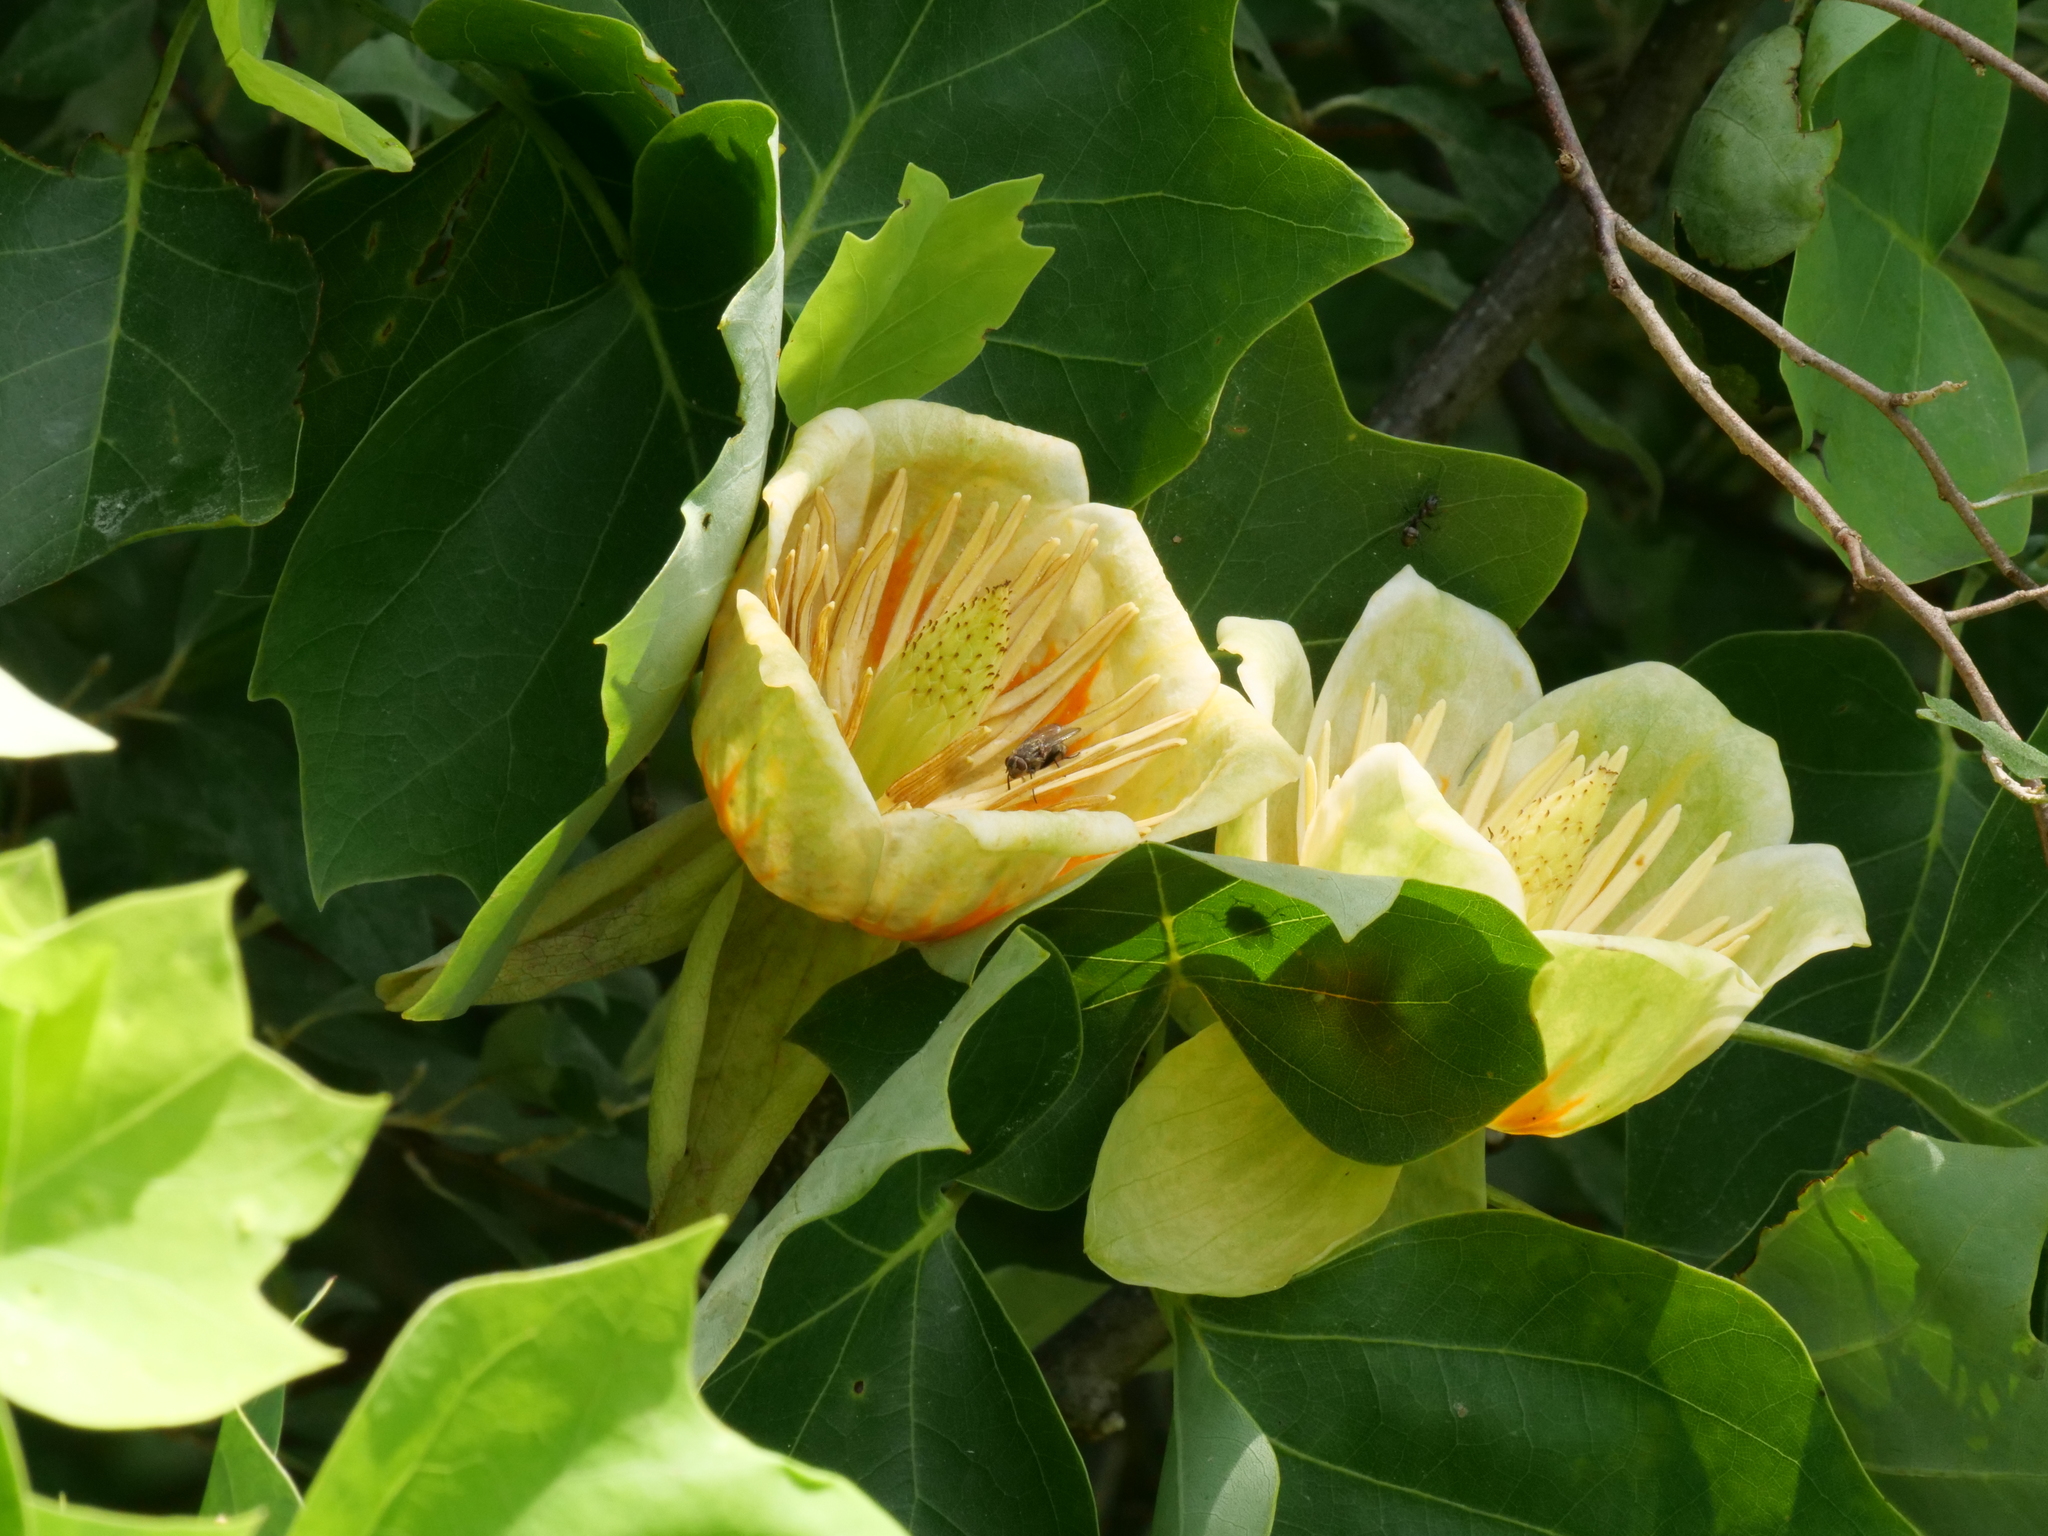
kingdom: Plantae
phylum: Tracheophyta
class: Magnoliopsida
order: Magnoliales
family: Magnoliaceae
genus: Liriodendron
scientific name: Liriodendron tulipifera
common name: Tulip tree
